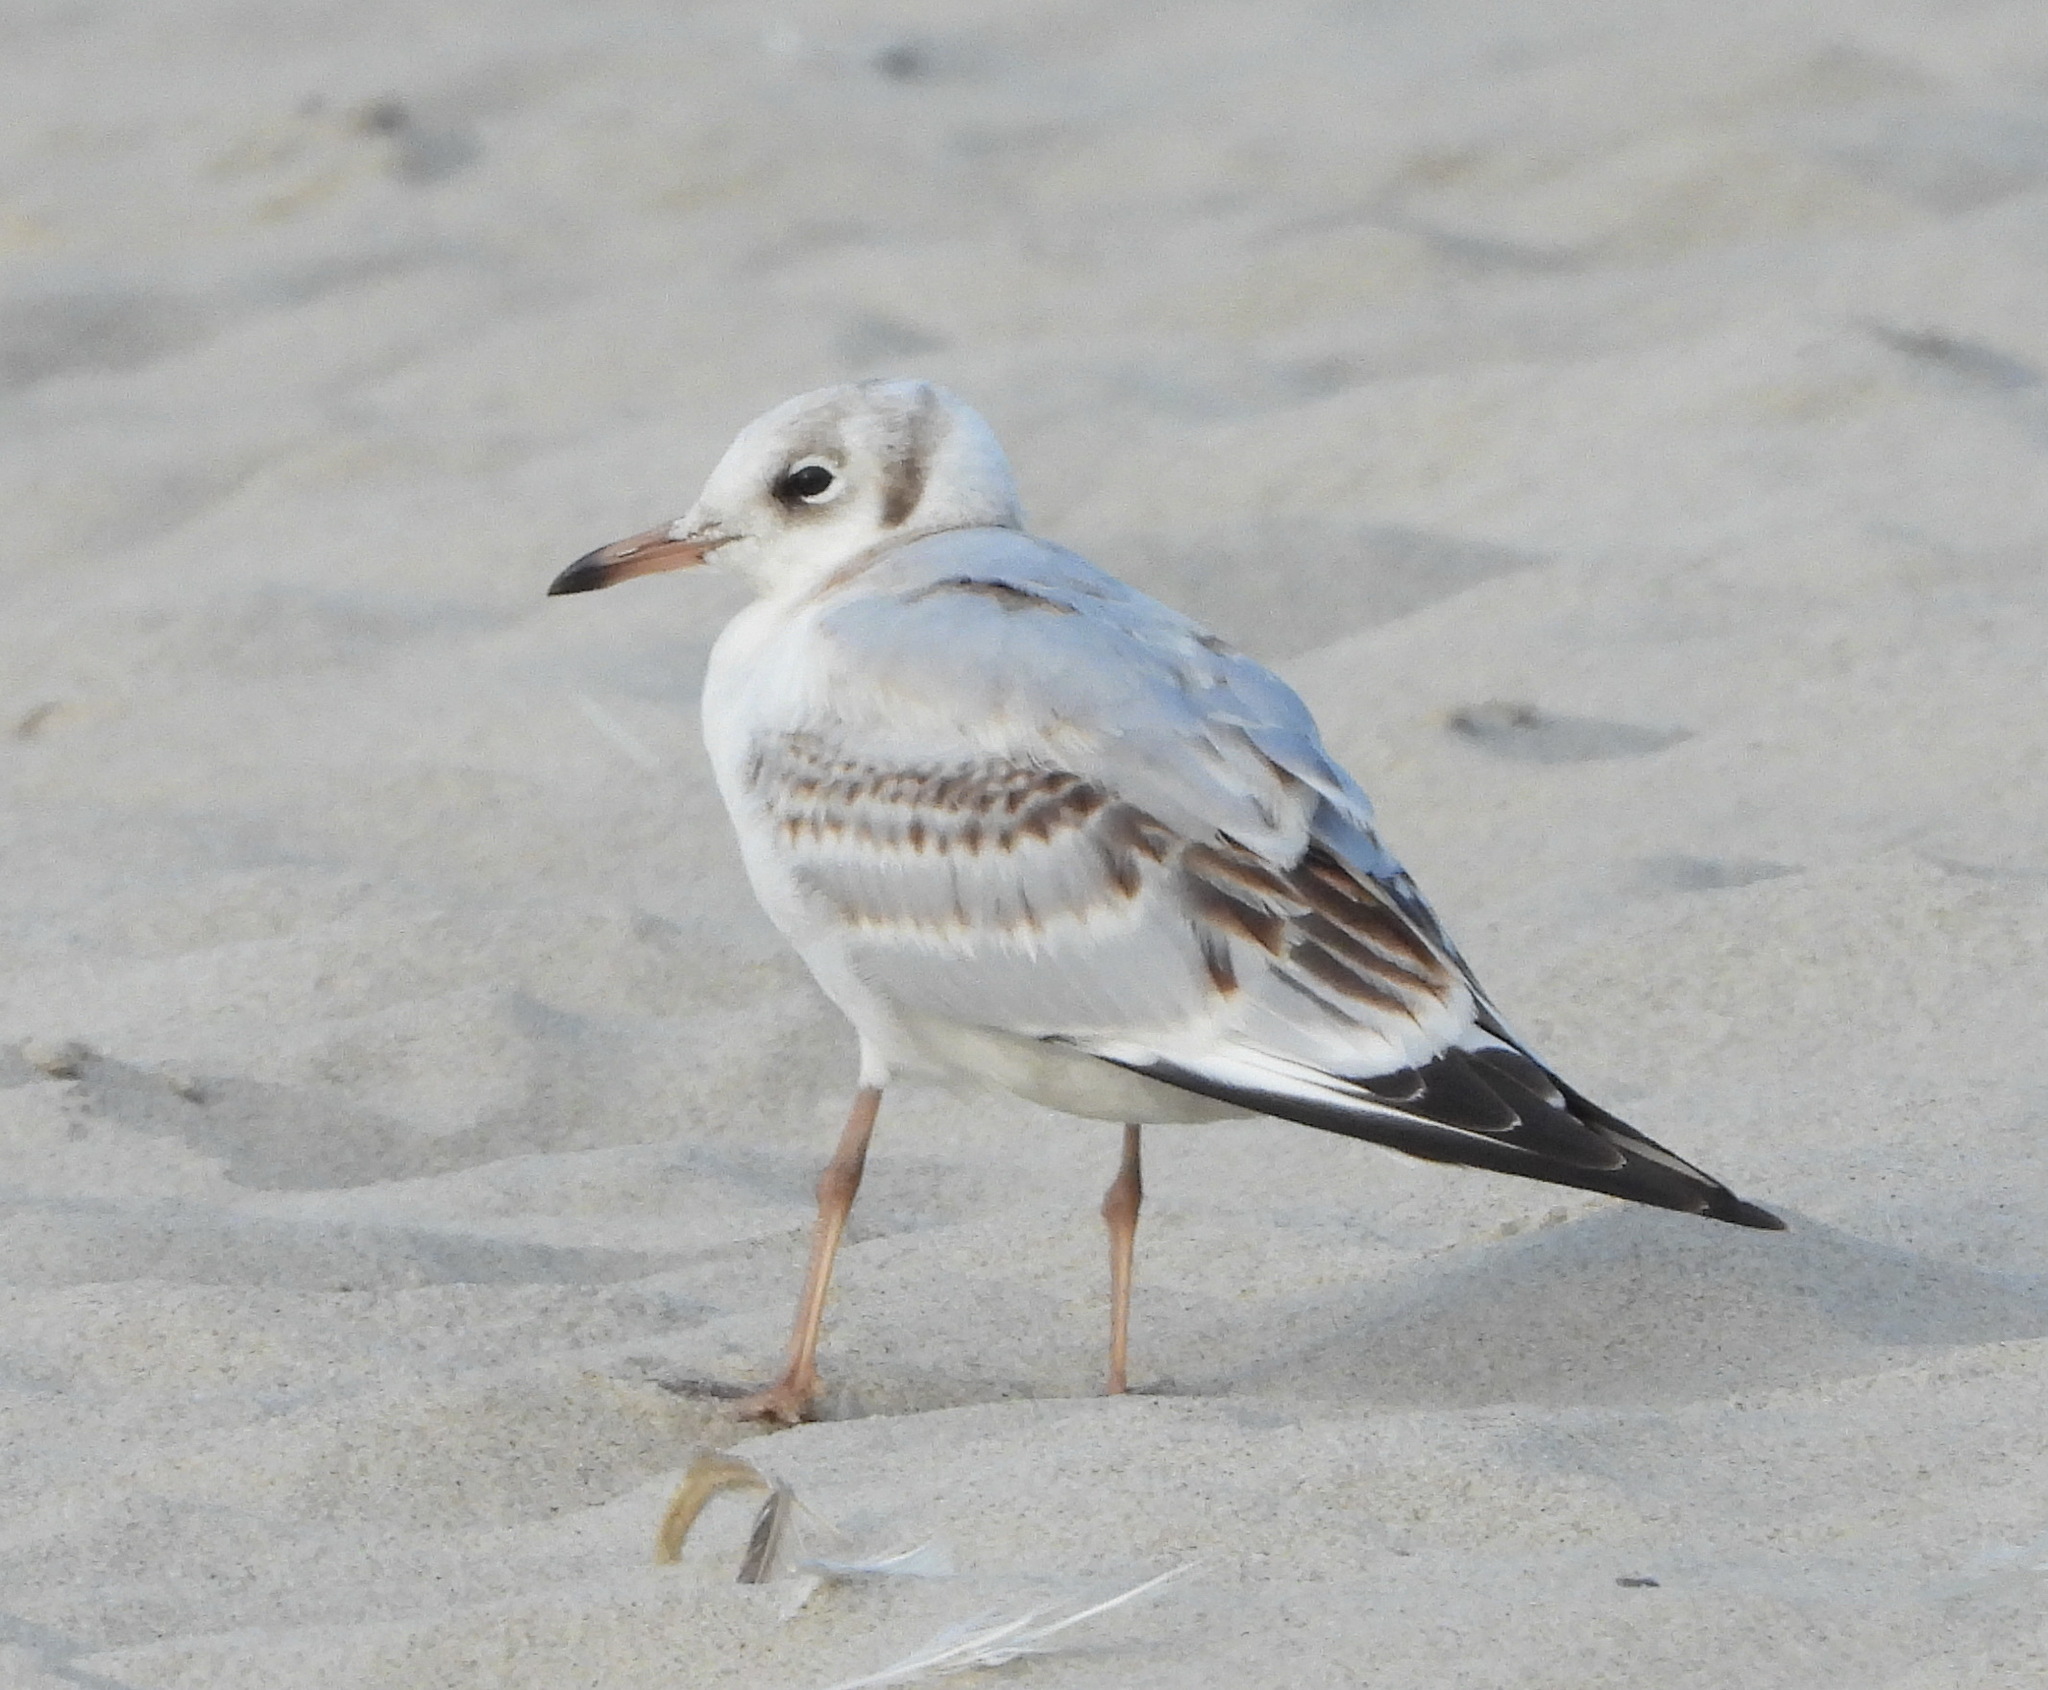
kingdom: Animalia
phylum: Chordata
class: Aves
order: Charadriiformes
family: Laridae
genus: Chroicocephalus
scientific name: Chroicocephalus ridibundus
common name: Black-headed gull
